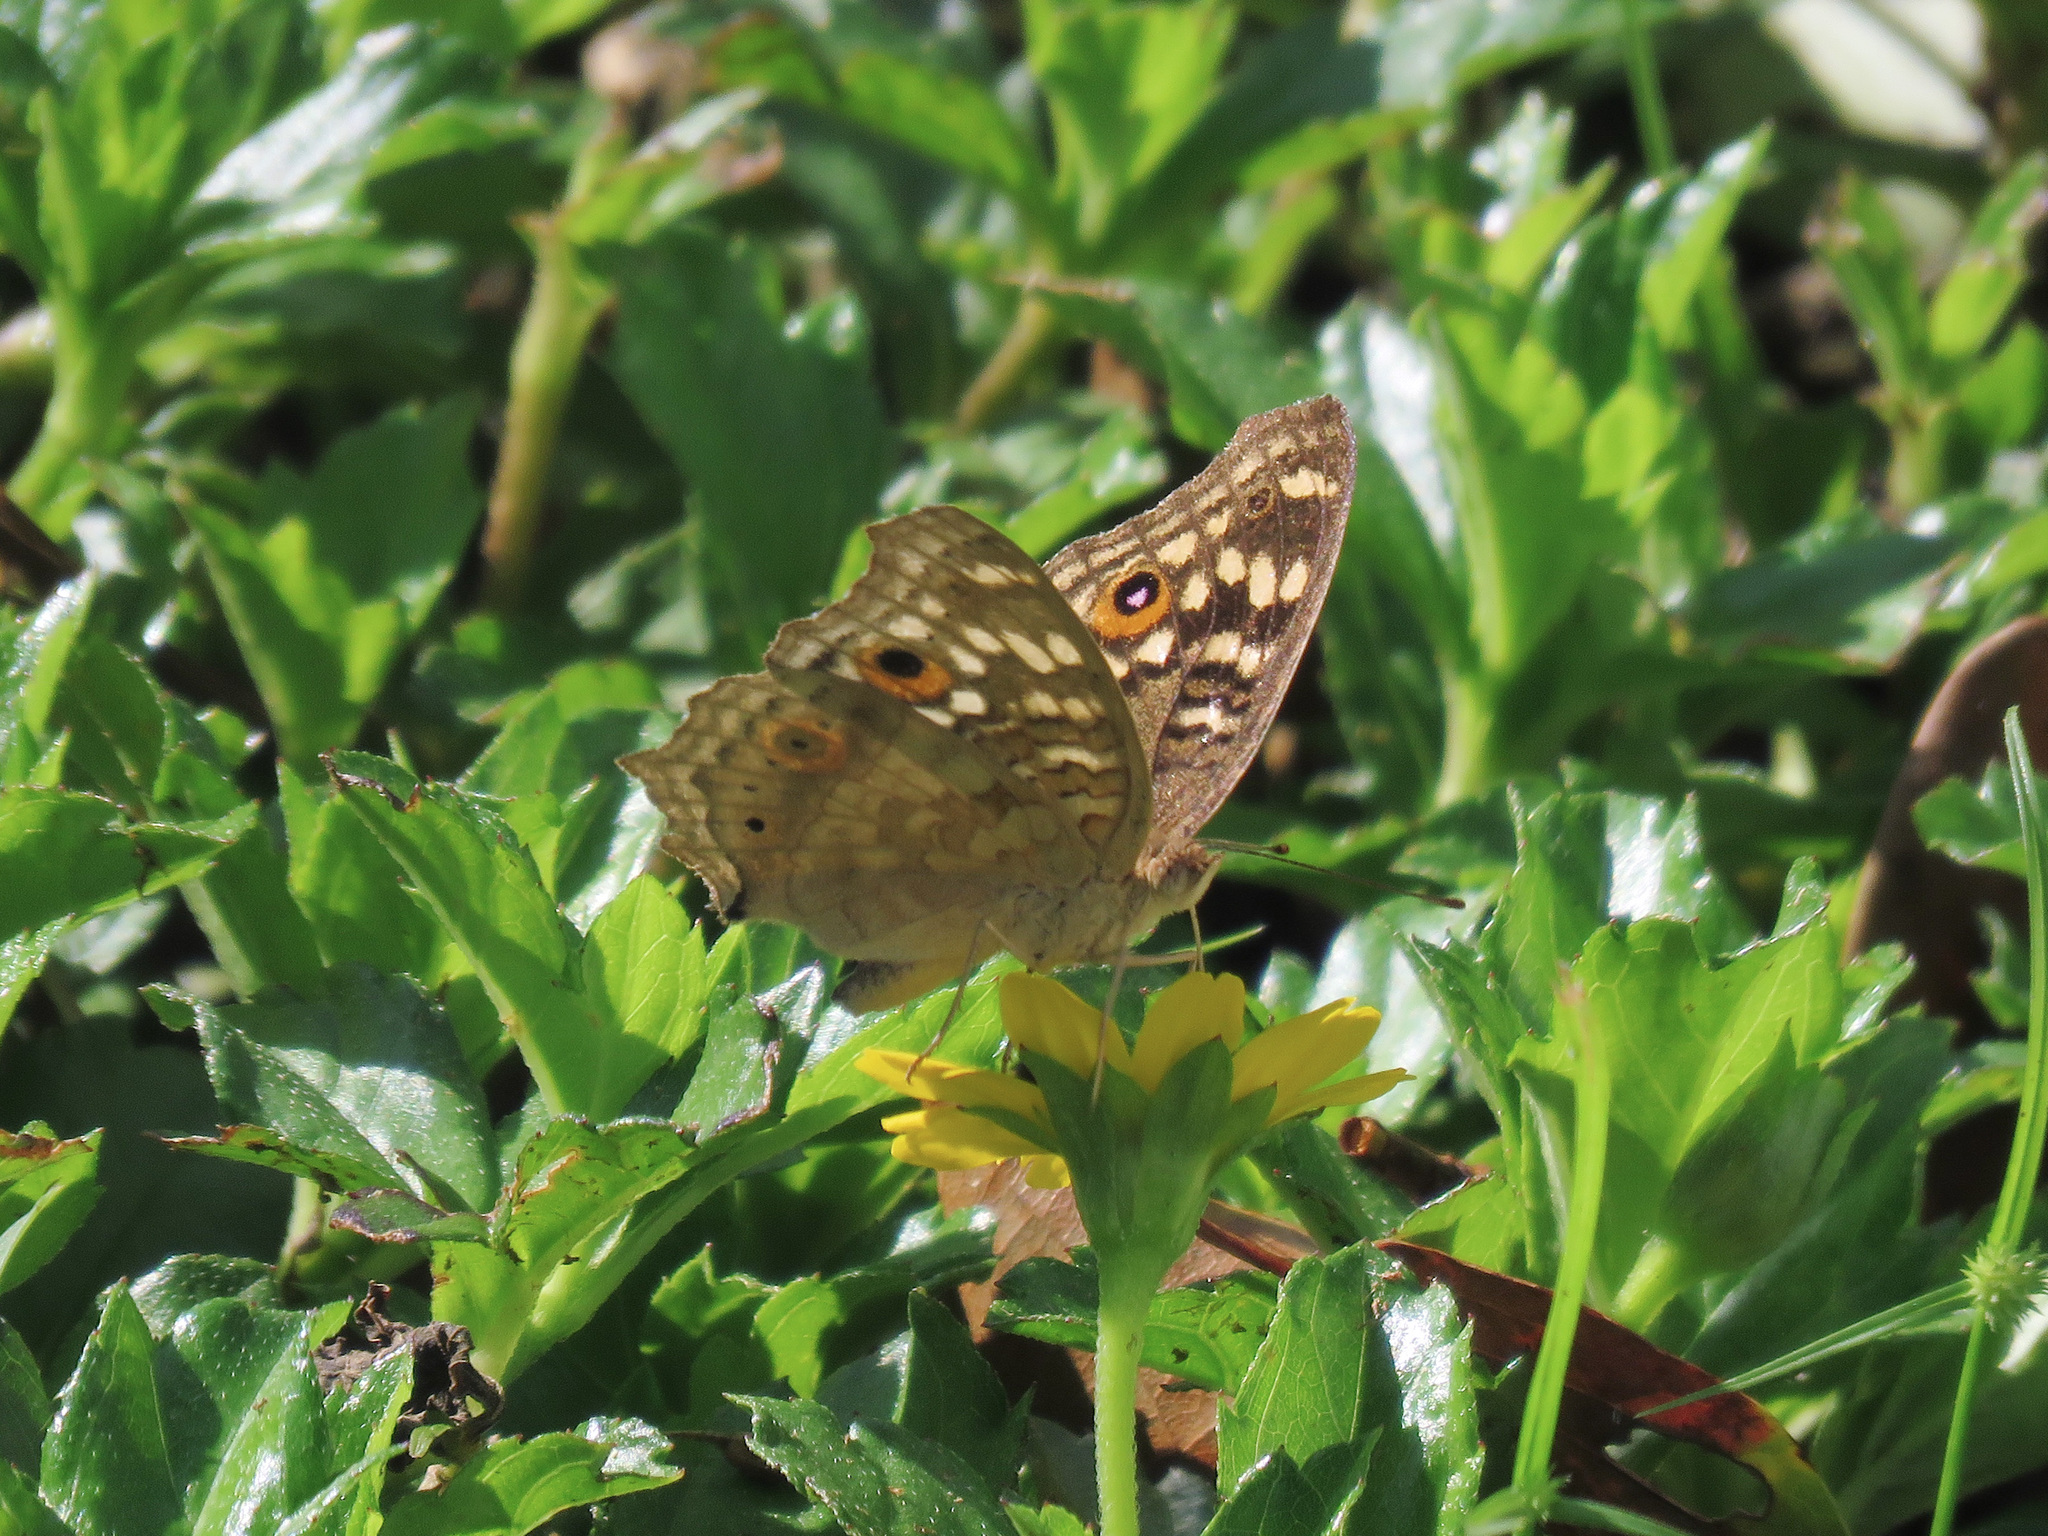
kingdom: Animalia
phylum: Arthropoda
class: Insecta
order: Lepidoptera
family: Nymphalidae
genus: Junonia
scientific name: Junonia lemonias
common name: Lemon pansy
